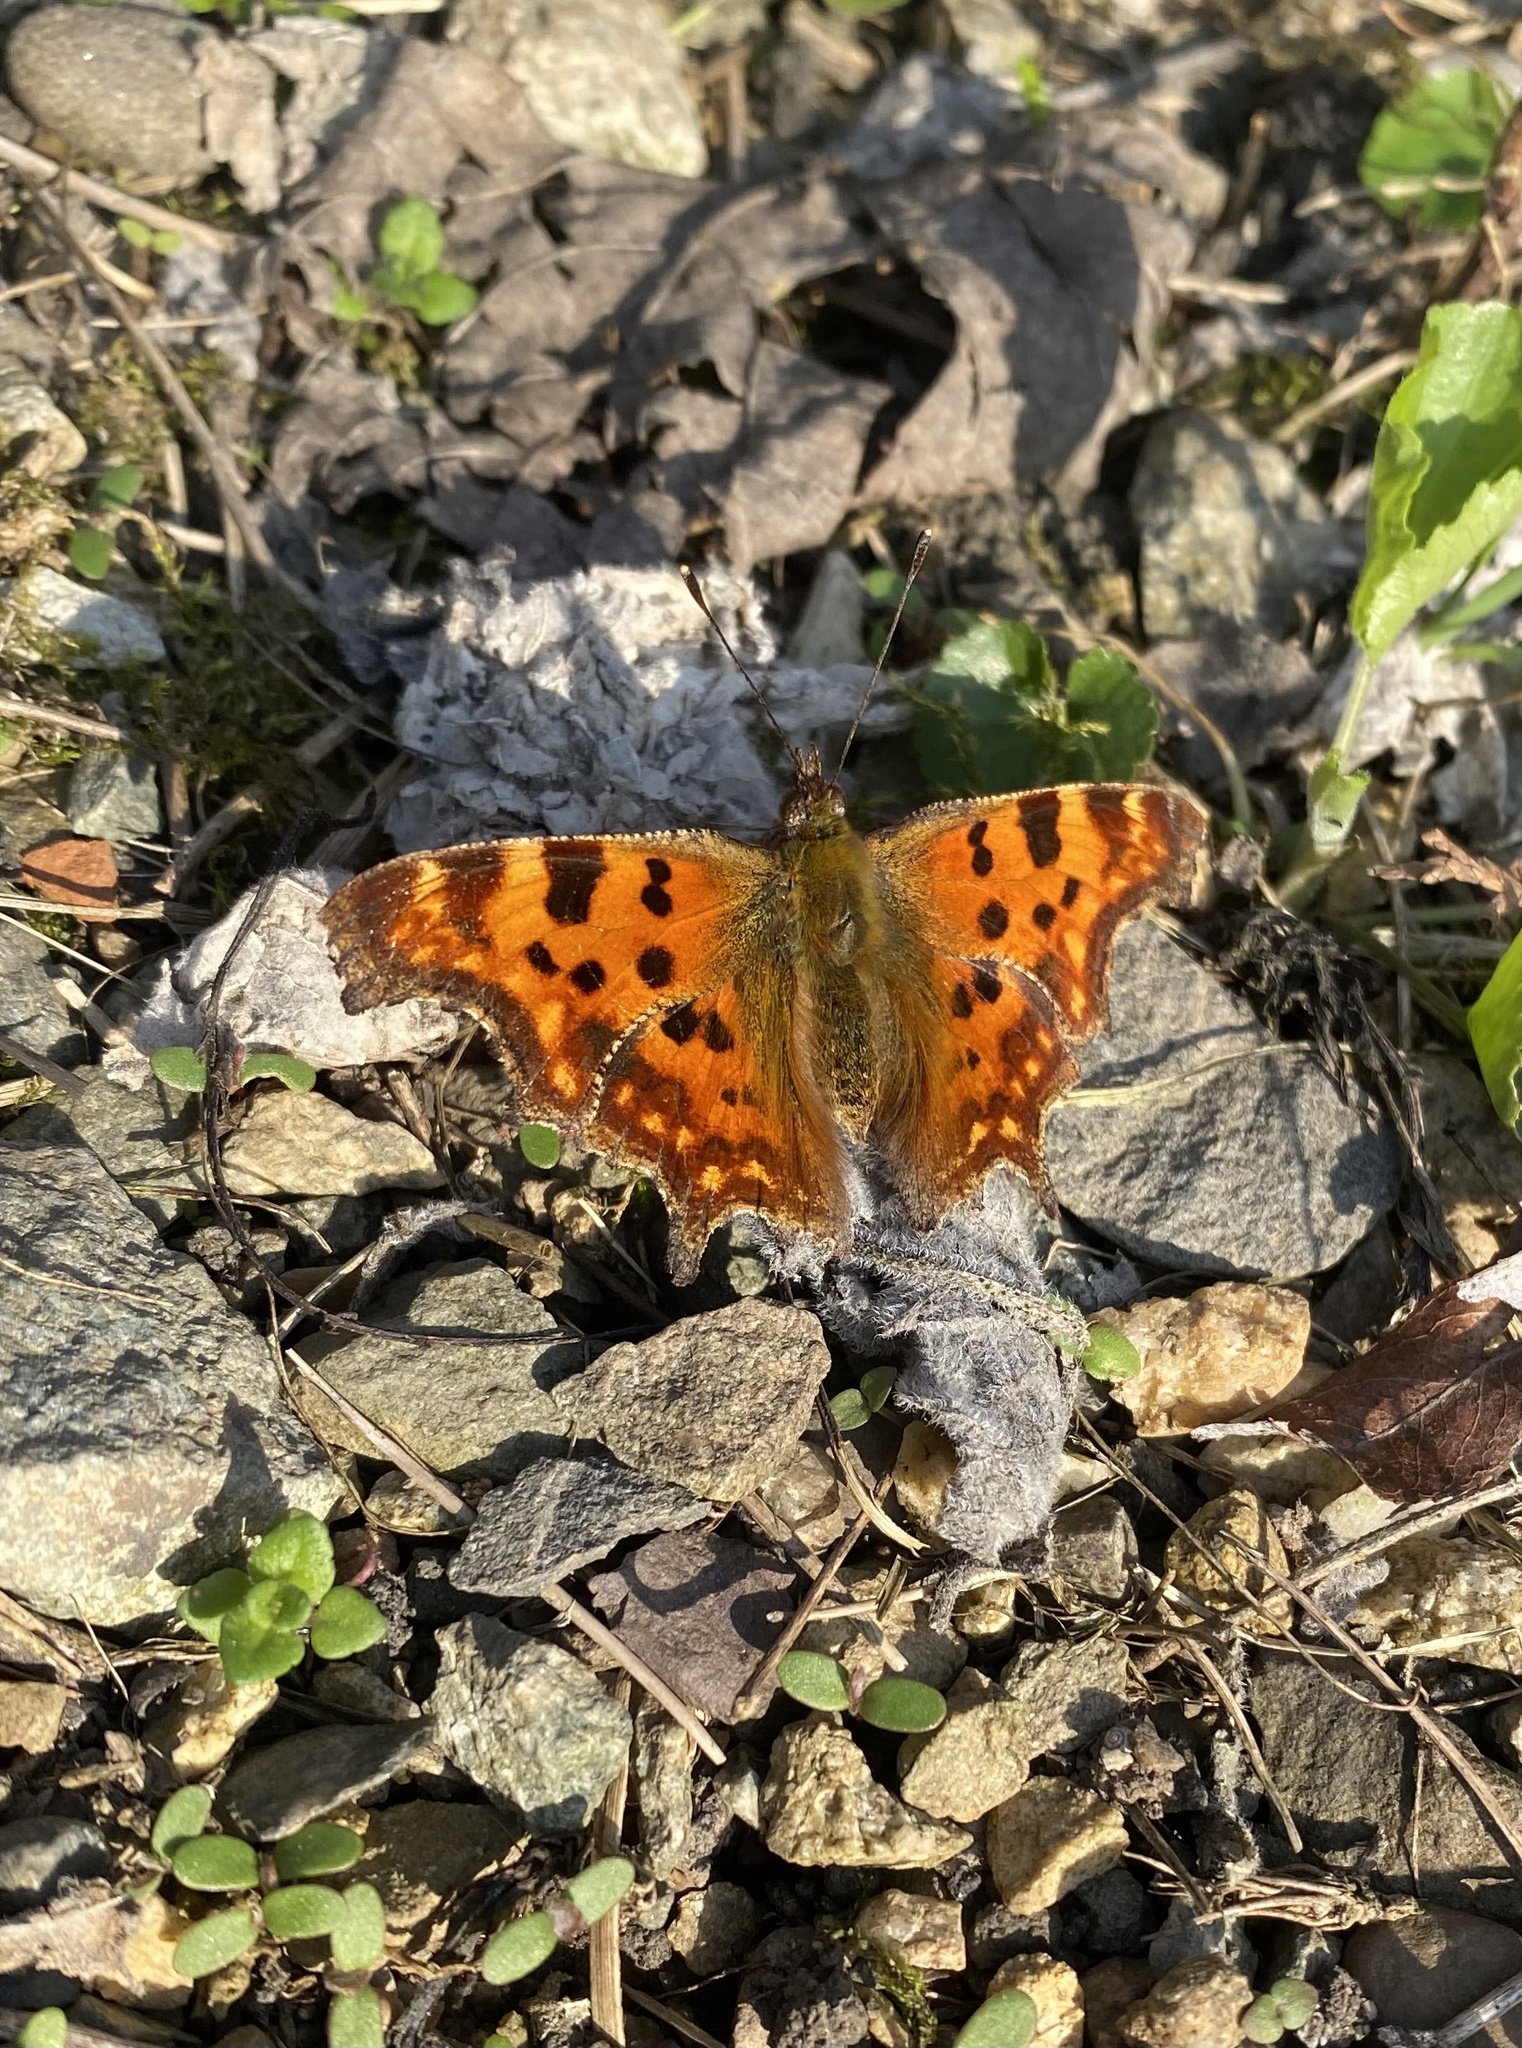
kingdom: Animalia
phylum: Arthropoda
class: Insecta
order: Lepidoptera
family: Nymphalidae
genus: Polygonia
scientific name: Polygonia c-album
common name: Comma
